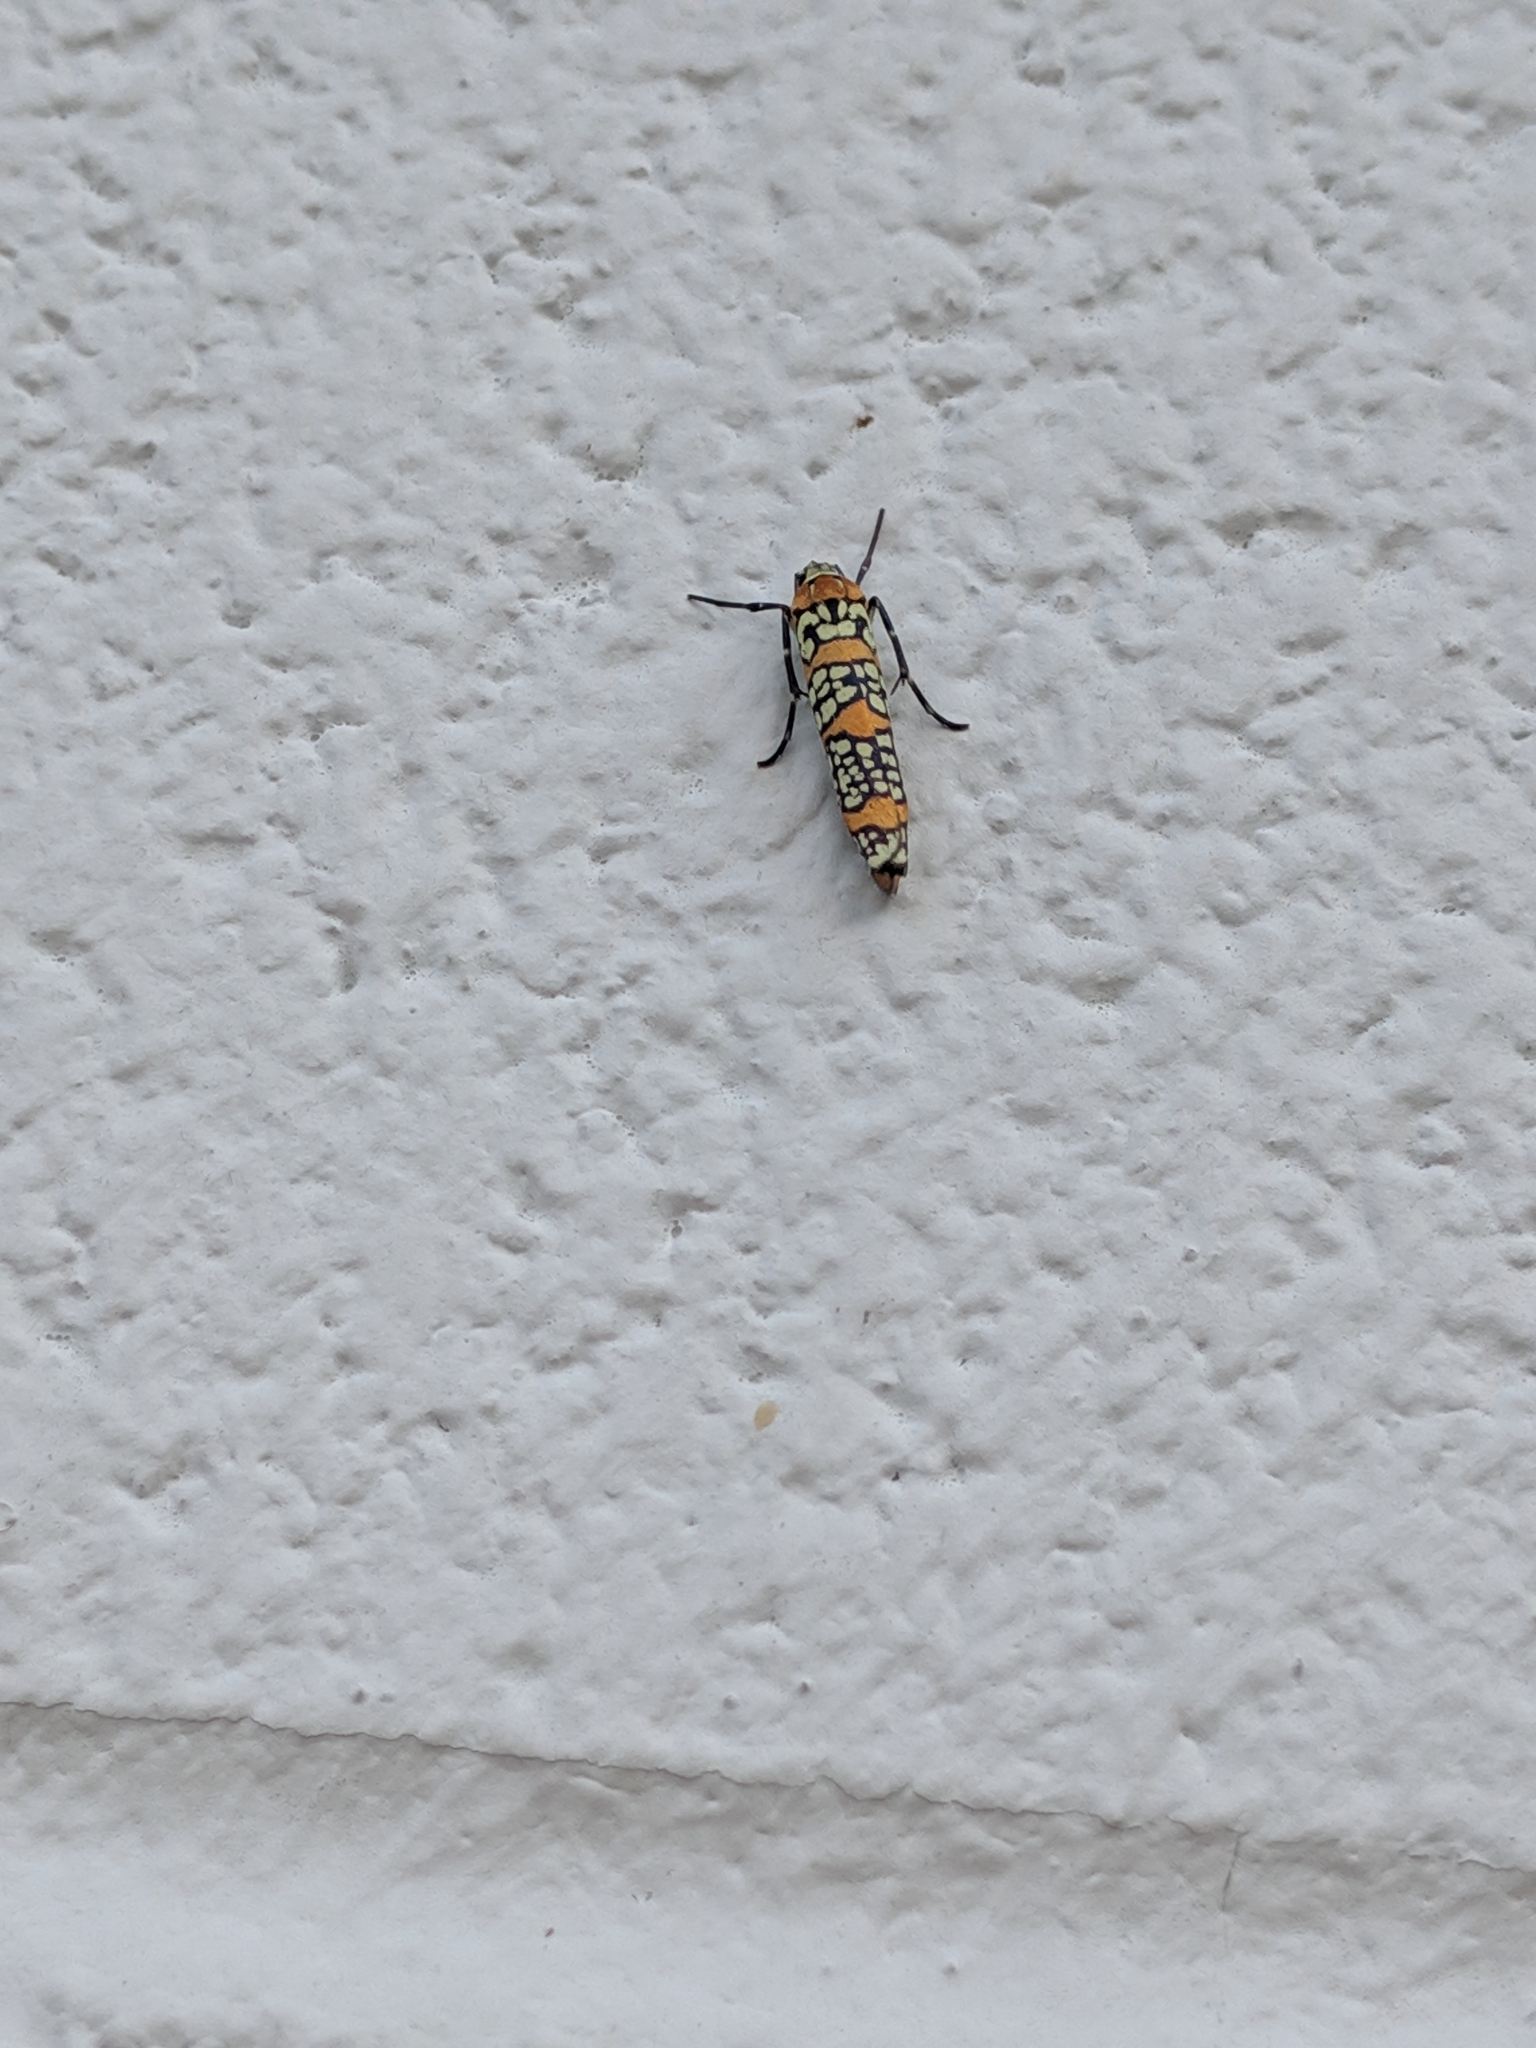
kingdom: Animalia
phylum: Arthropoda
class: Insecta
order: Lepidoptera
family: Attevidae
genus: Atteva
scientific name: Atteva punctella
